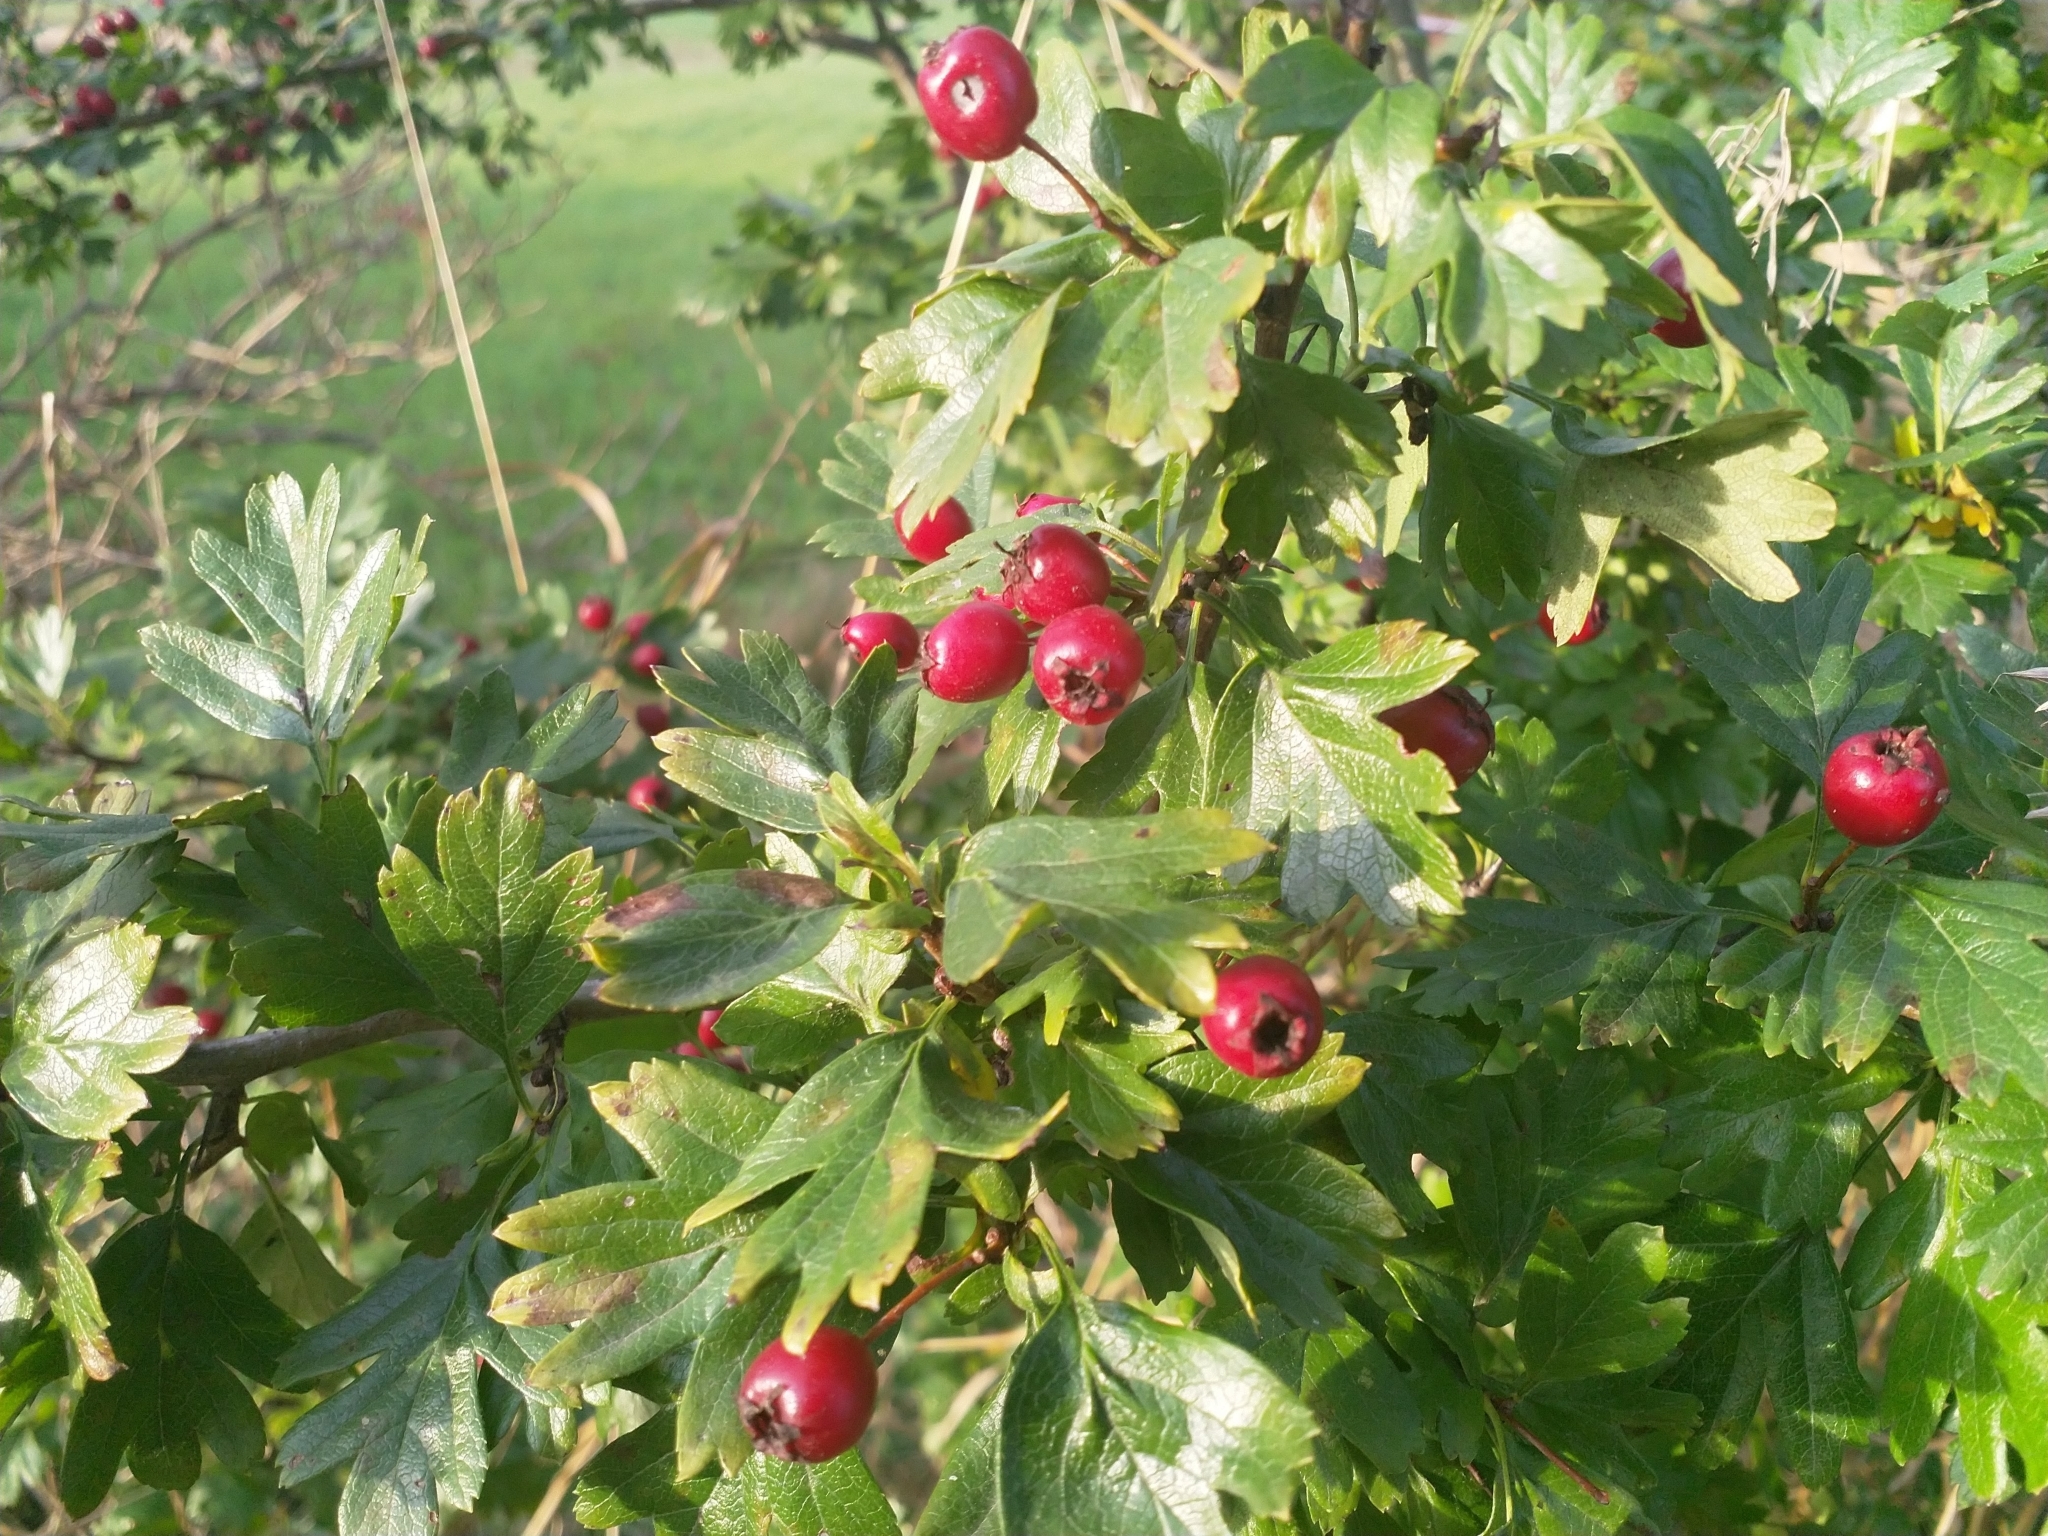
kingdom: Plantae
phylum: Tracheophyta
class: Magnoliopsida
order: Rosales
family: Rosaceae
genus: Crataegus
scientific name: Crataegus monogyna
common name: Hawthorn
